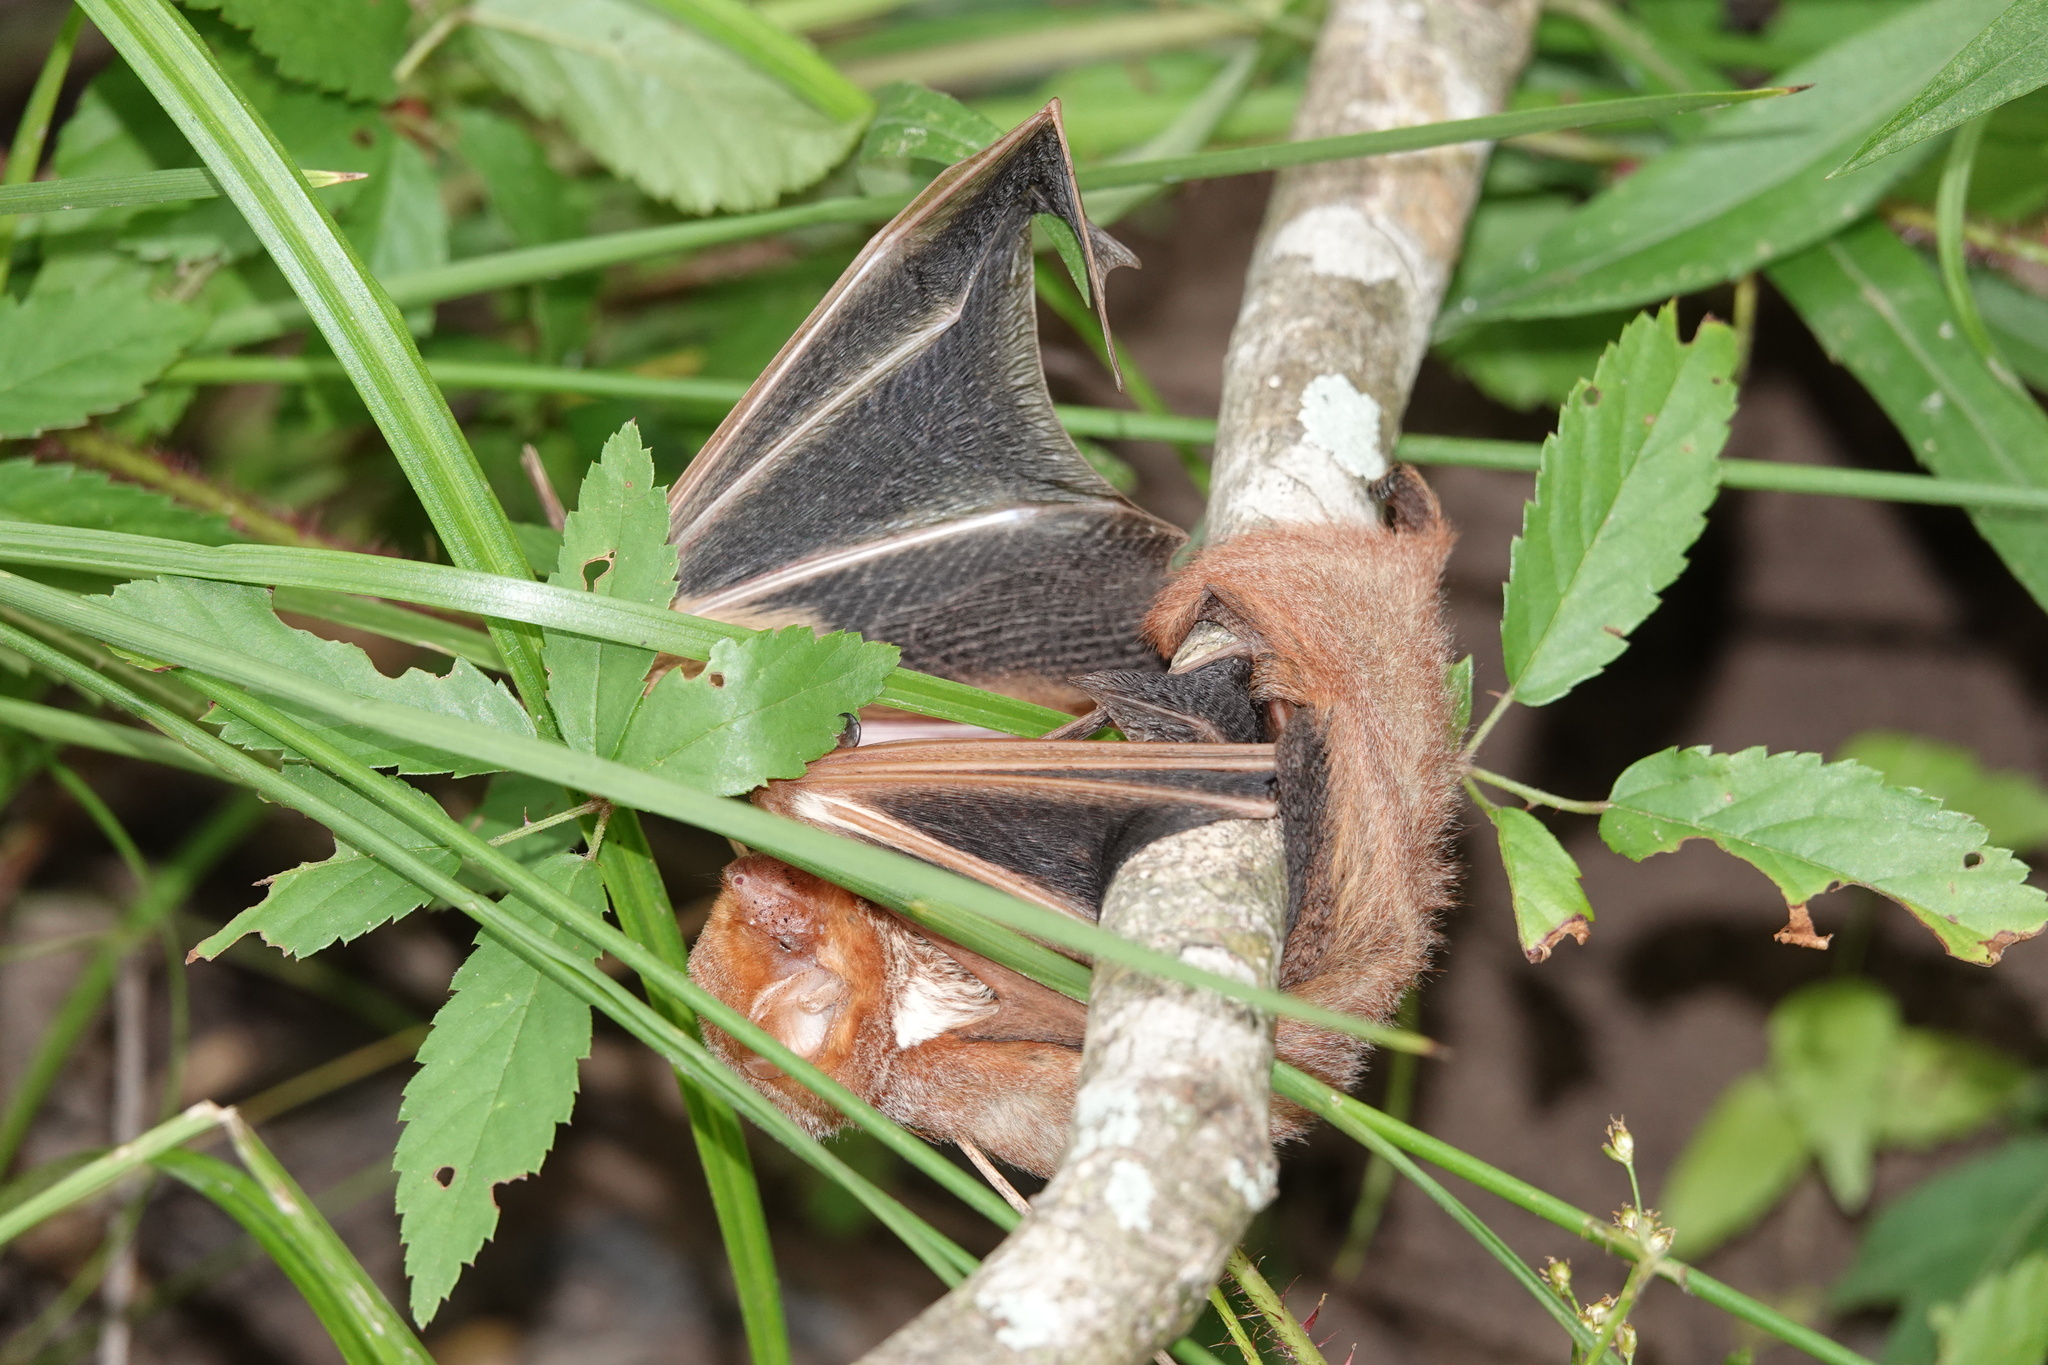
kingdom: Animalia
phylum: Chordata
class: Mammalia
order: Chiroptera
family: Vespertilionidae
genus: Lasiurus
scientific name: Lasiurus borealis
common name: Eastern red bat
